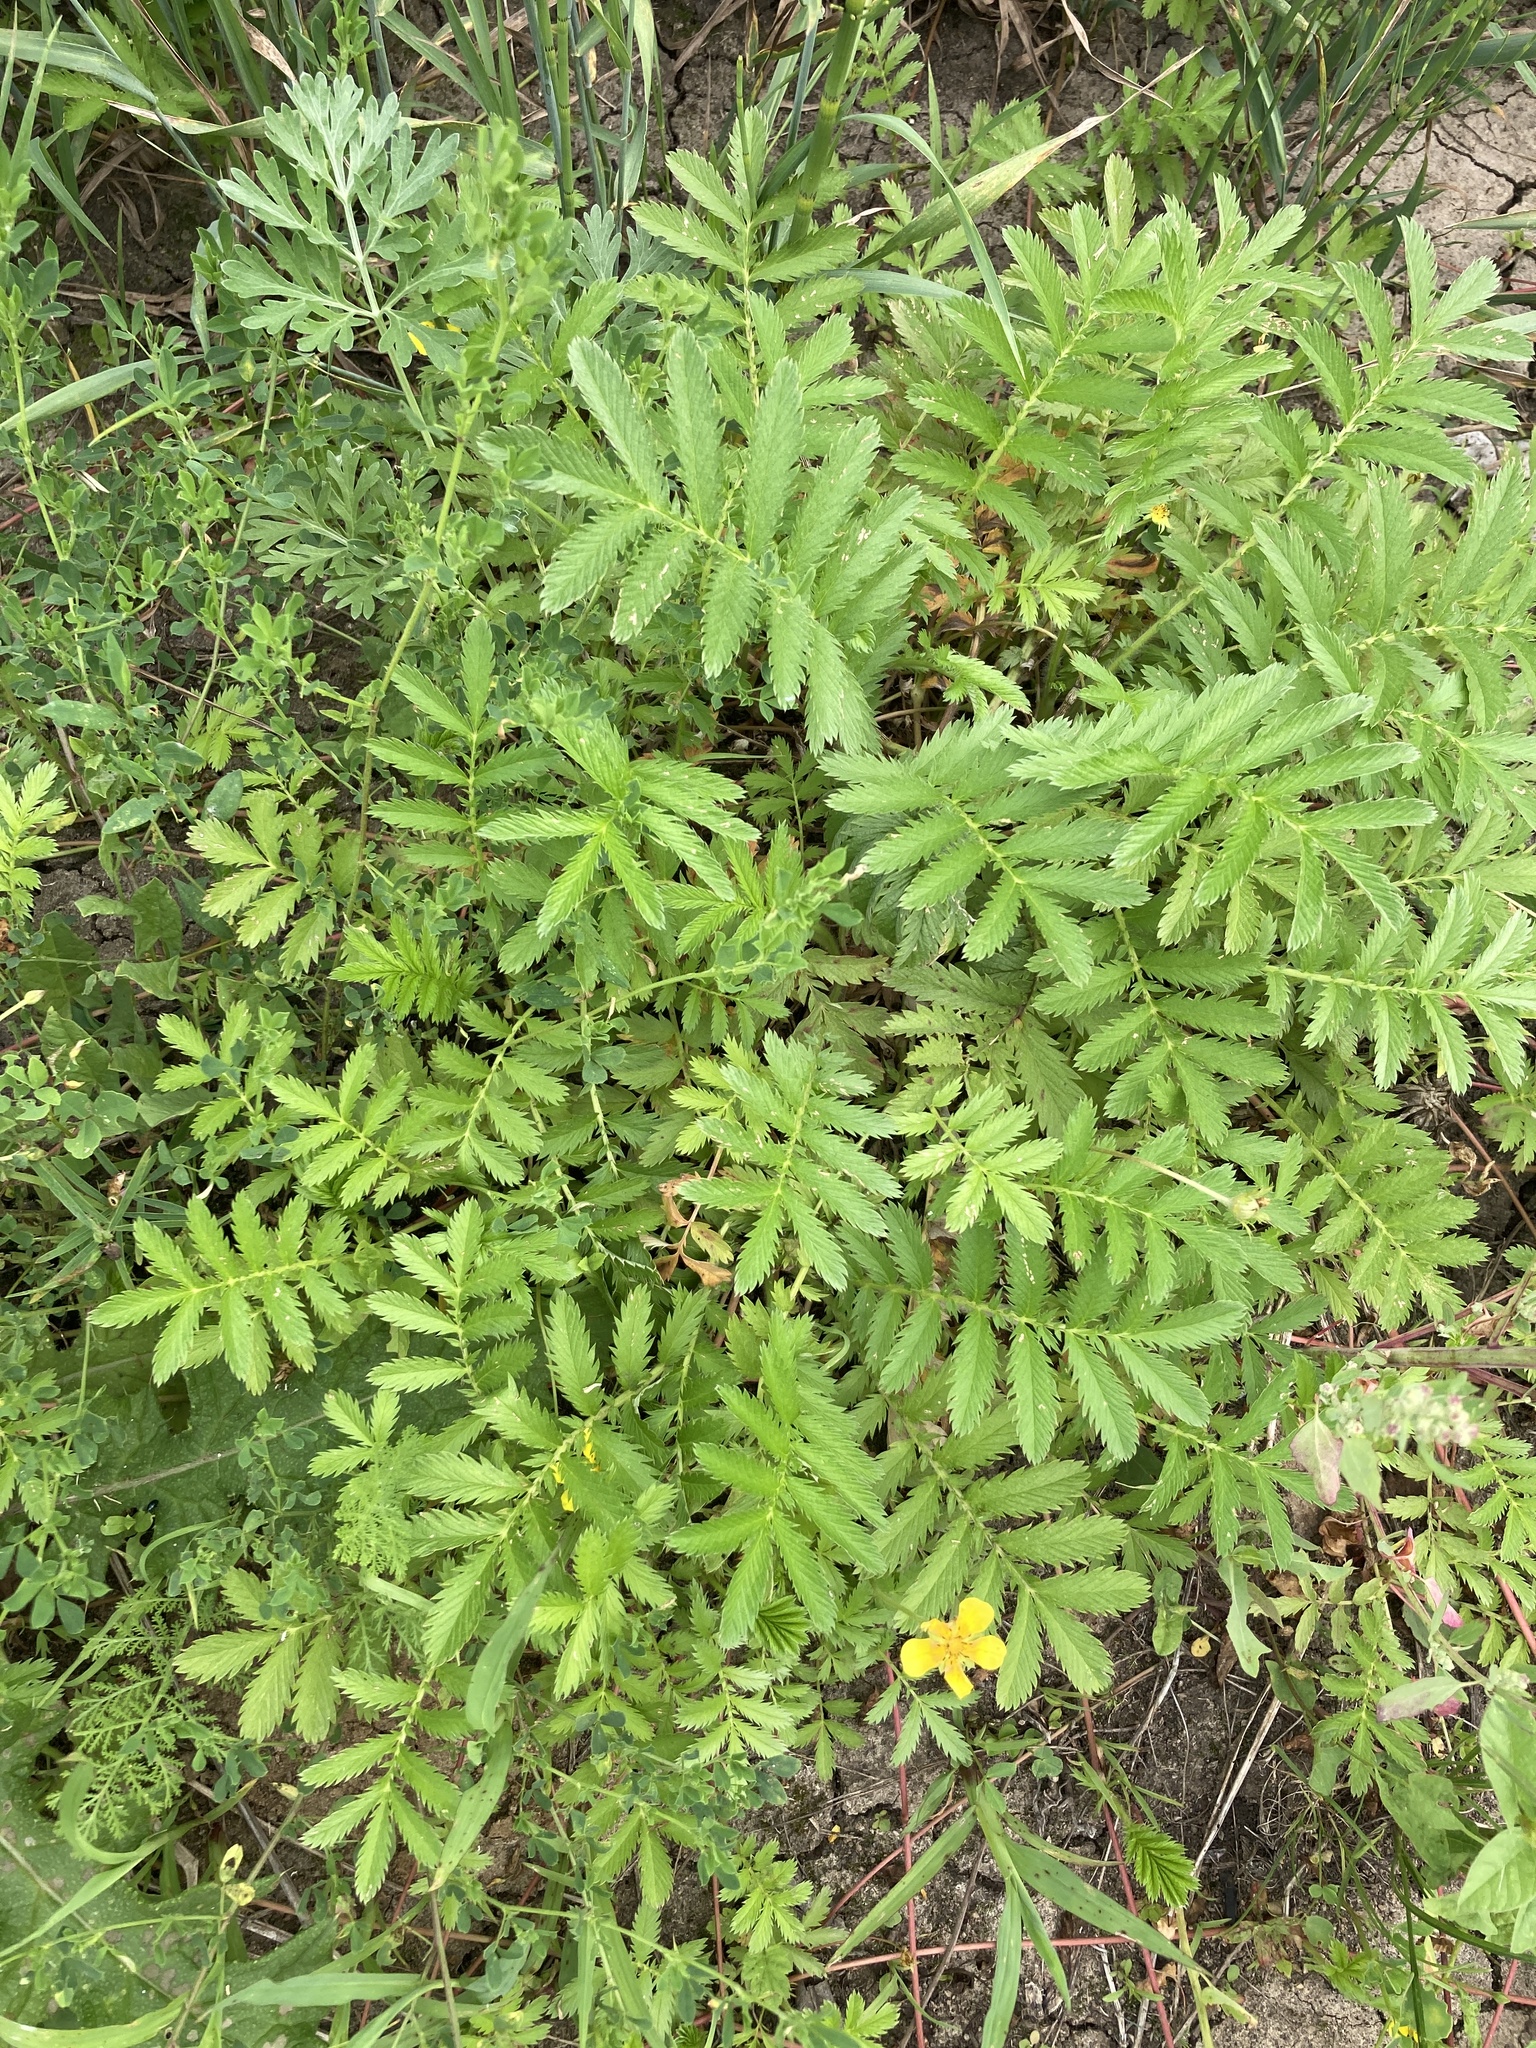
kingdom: Plantae
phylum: Tracheophyta
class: Magnoliopsida
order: Rosales
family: Rosaceae
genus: Argentina
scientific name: Argentina anserina
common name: Common silverweed
